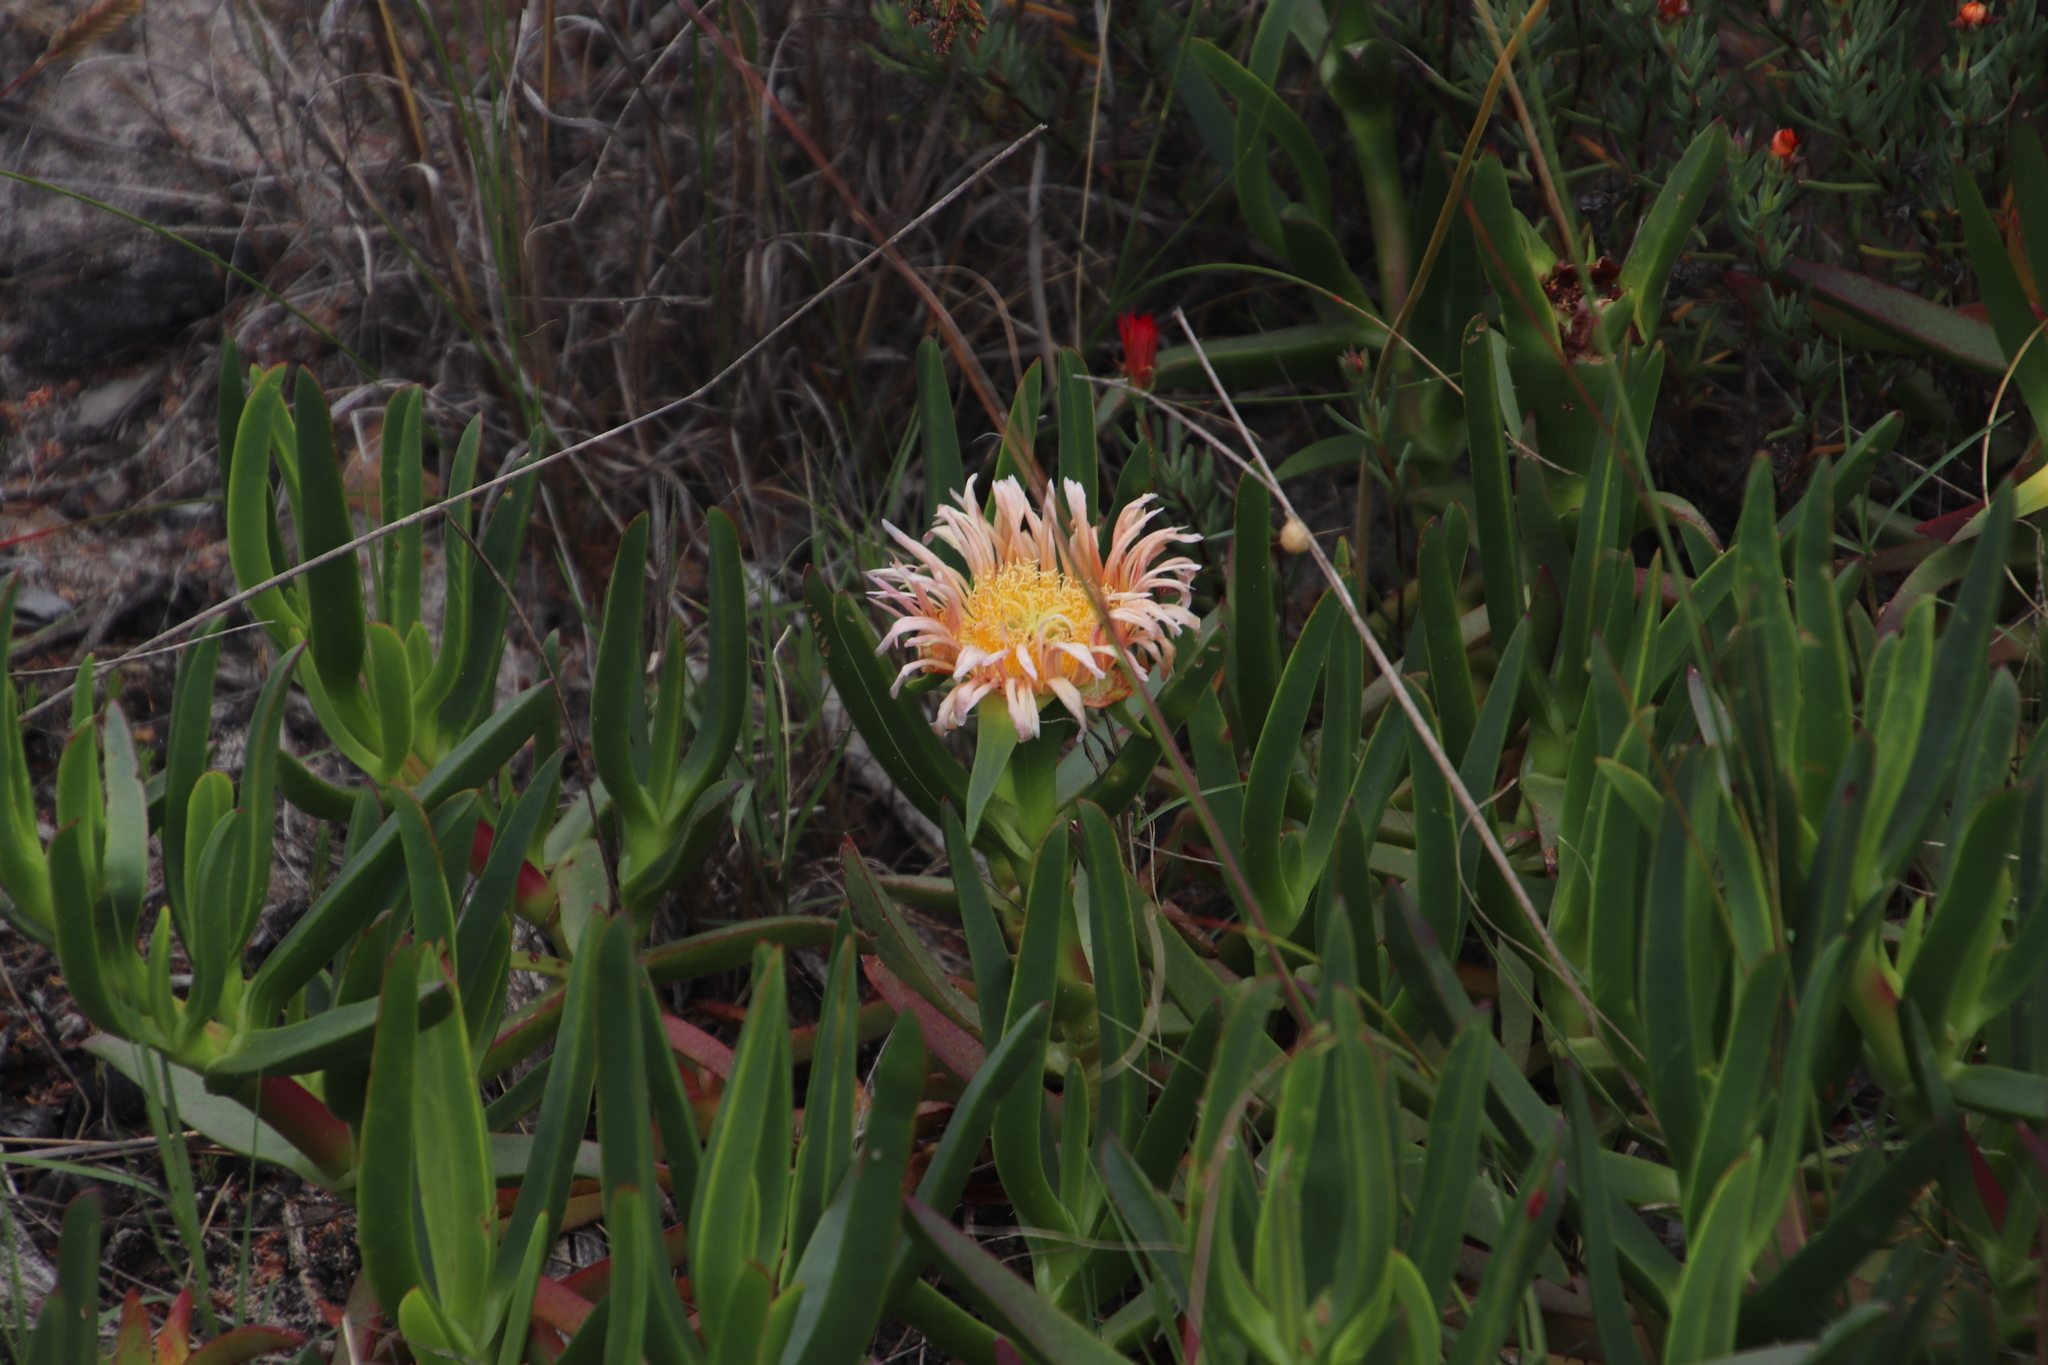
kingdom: Plantae
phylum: Tracheophyta
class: Magnoliopsida
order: Caryophyllales
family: Aizoaceae
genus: Carpobrotus
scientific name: Carpobrotus edulis
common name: Hottentot-fig
